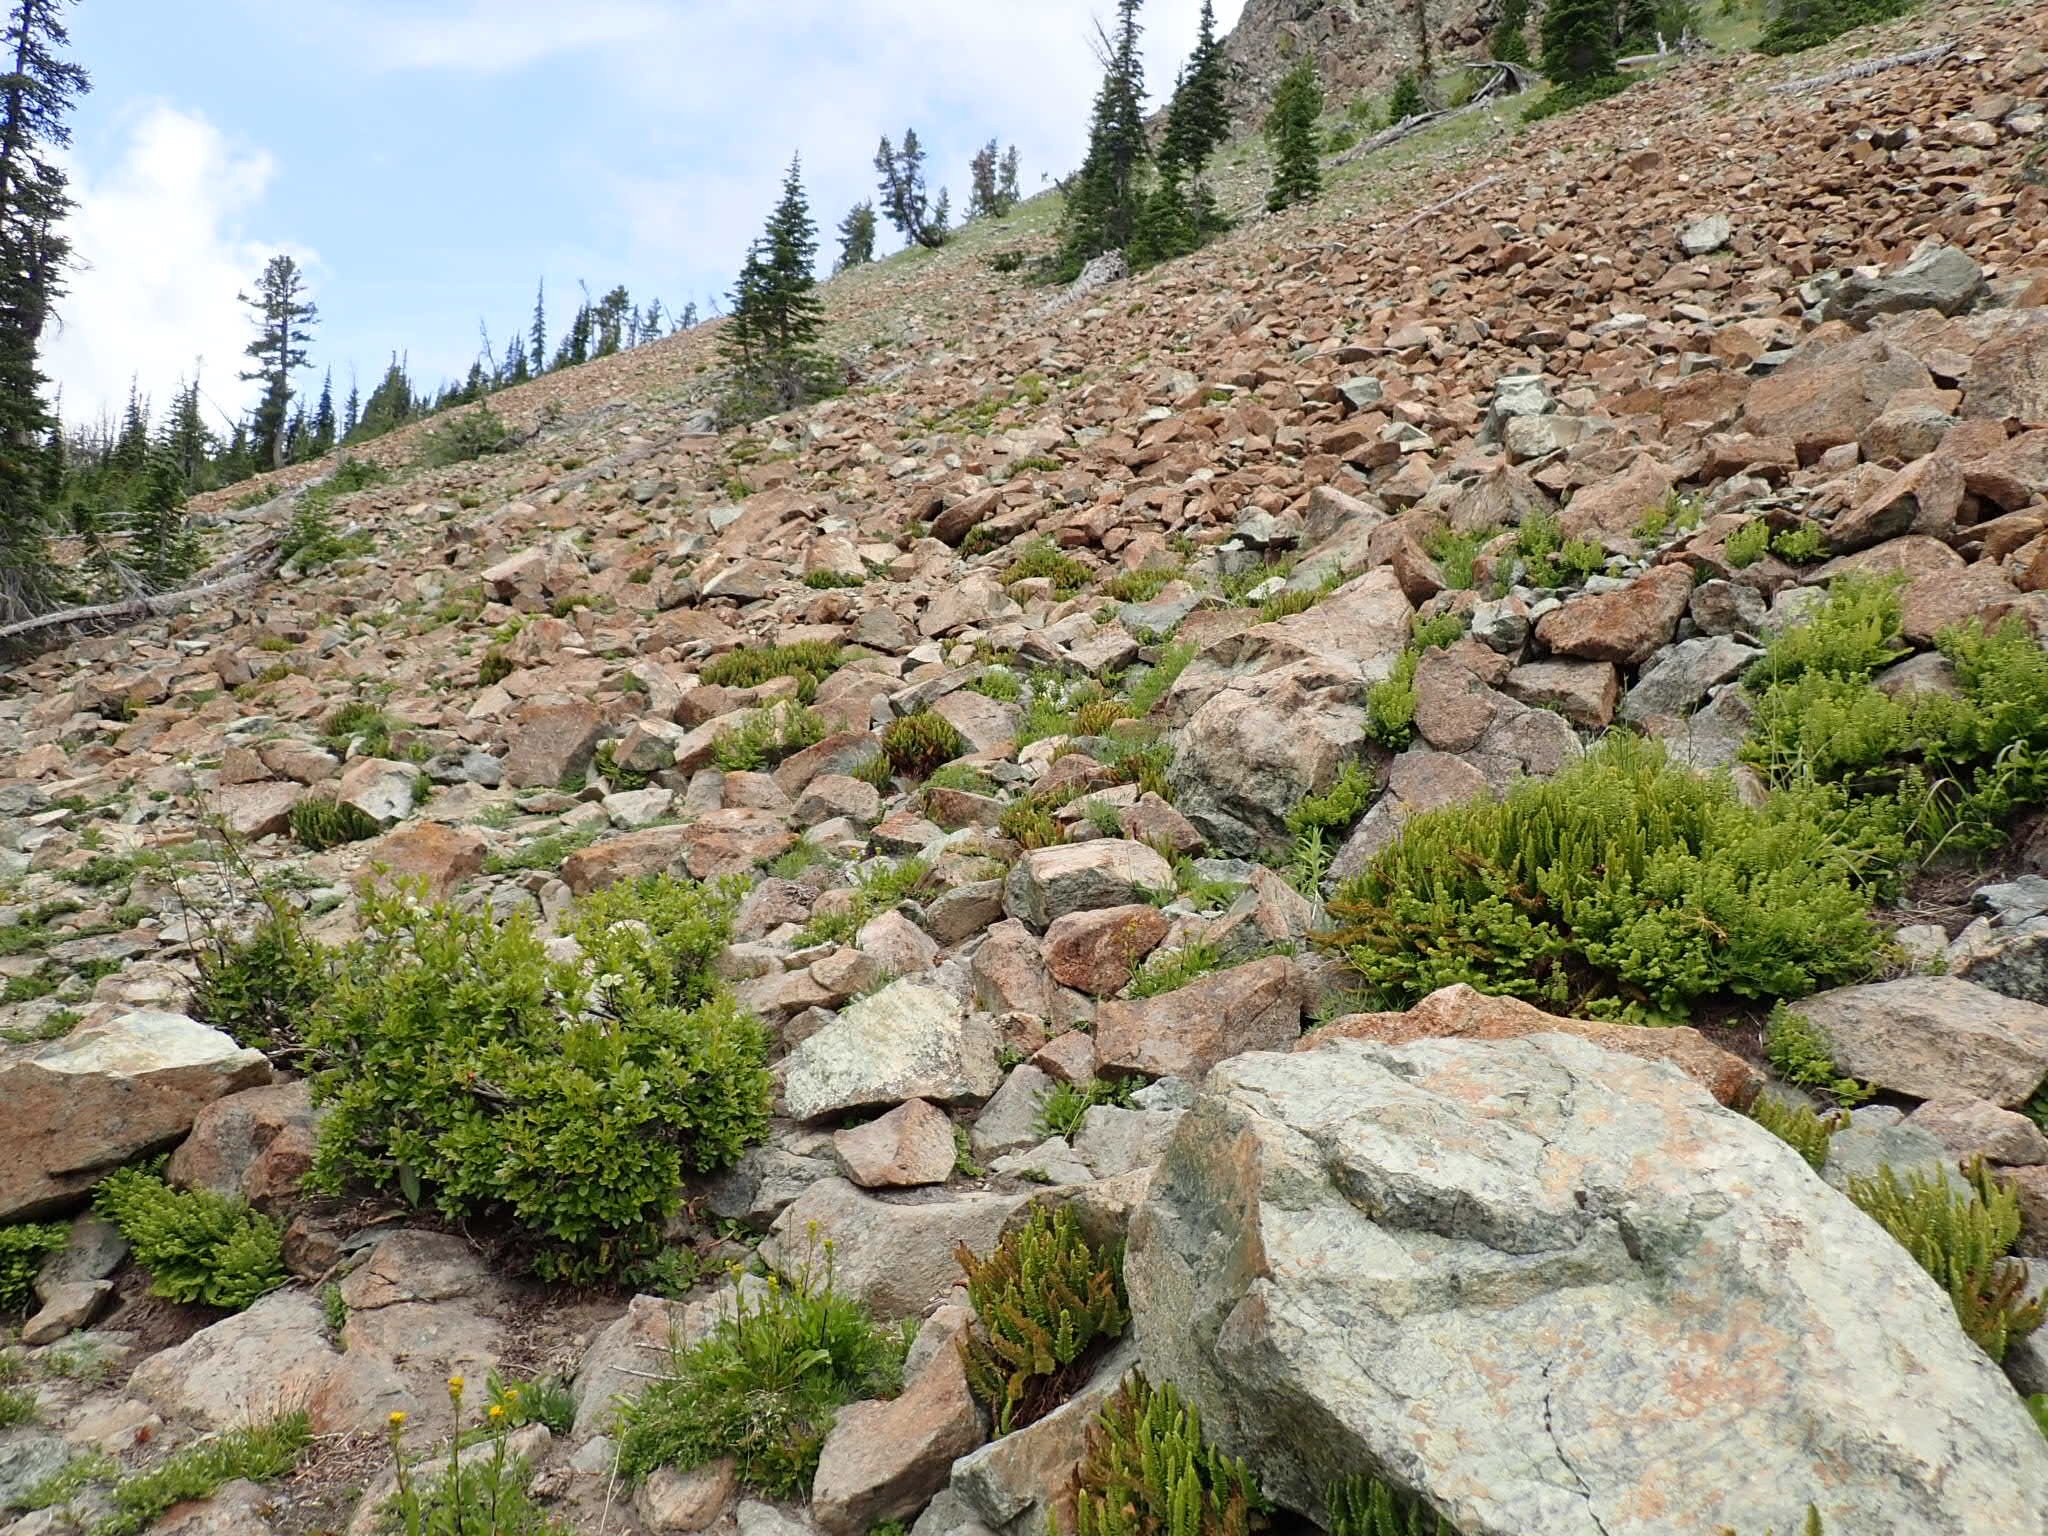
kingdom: Plantae
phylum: Tracheophyta
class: Polypodiopsida
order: Polypodiales
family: Dryopteridaceae
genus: Polystichum
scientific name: Polystichum lemmonii
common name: Lemmon's holly fern
